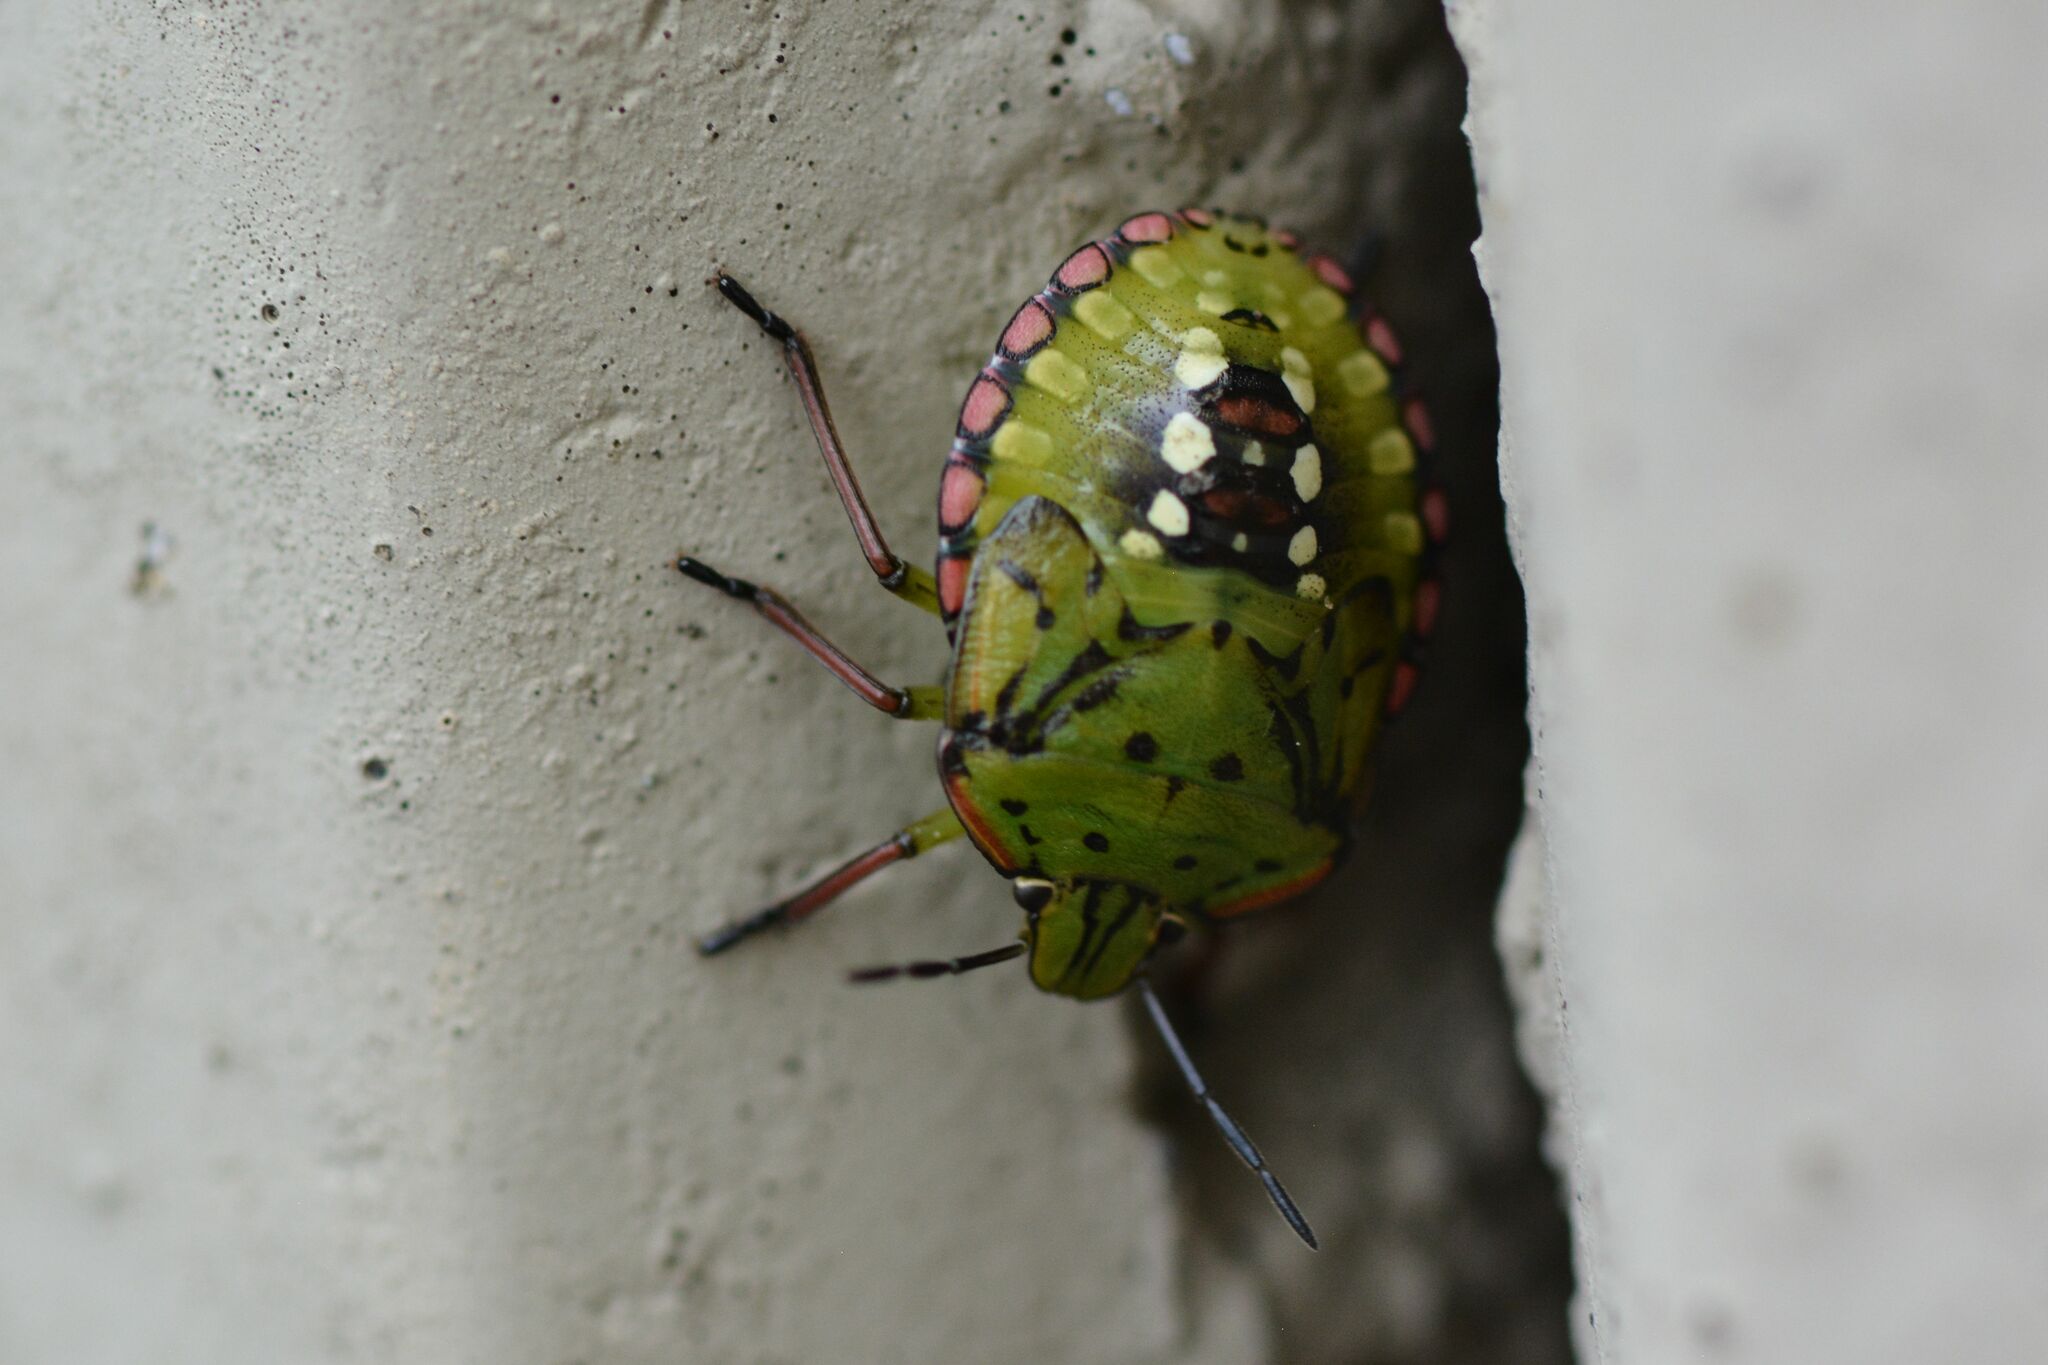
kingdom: Animalia
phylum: Arthropoda
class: Insecta
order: Hemiptera
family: Pentatomidae
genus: Nezara
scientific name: Nezara viridula
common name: Southern green stink bug
